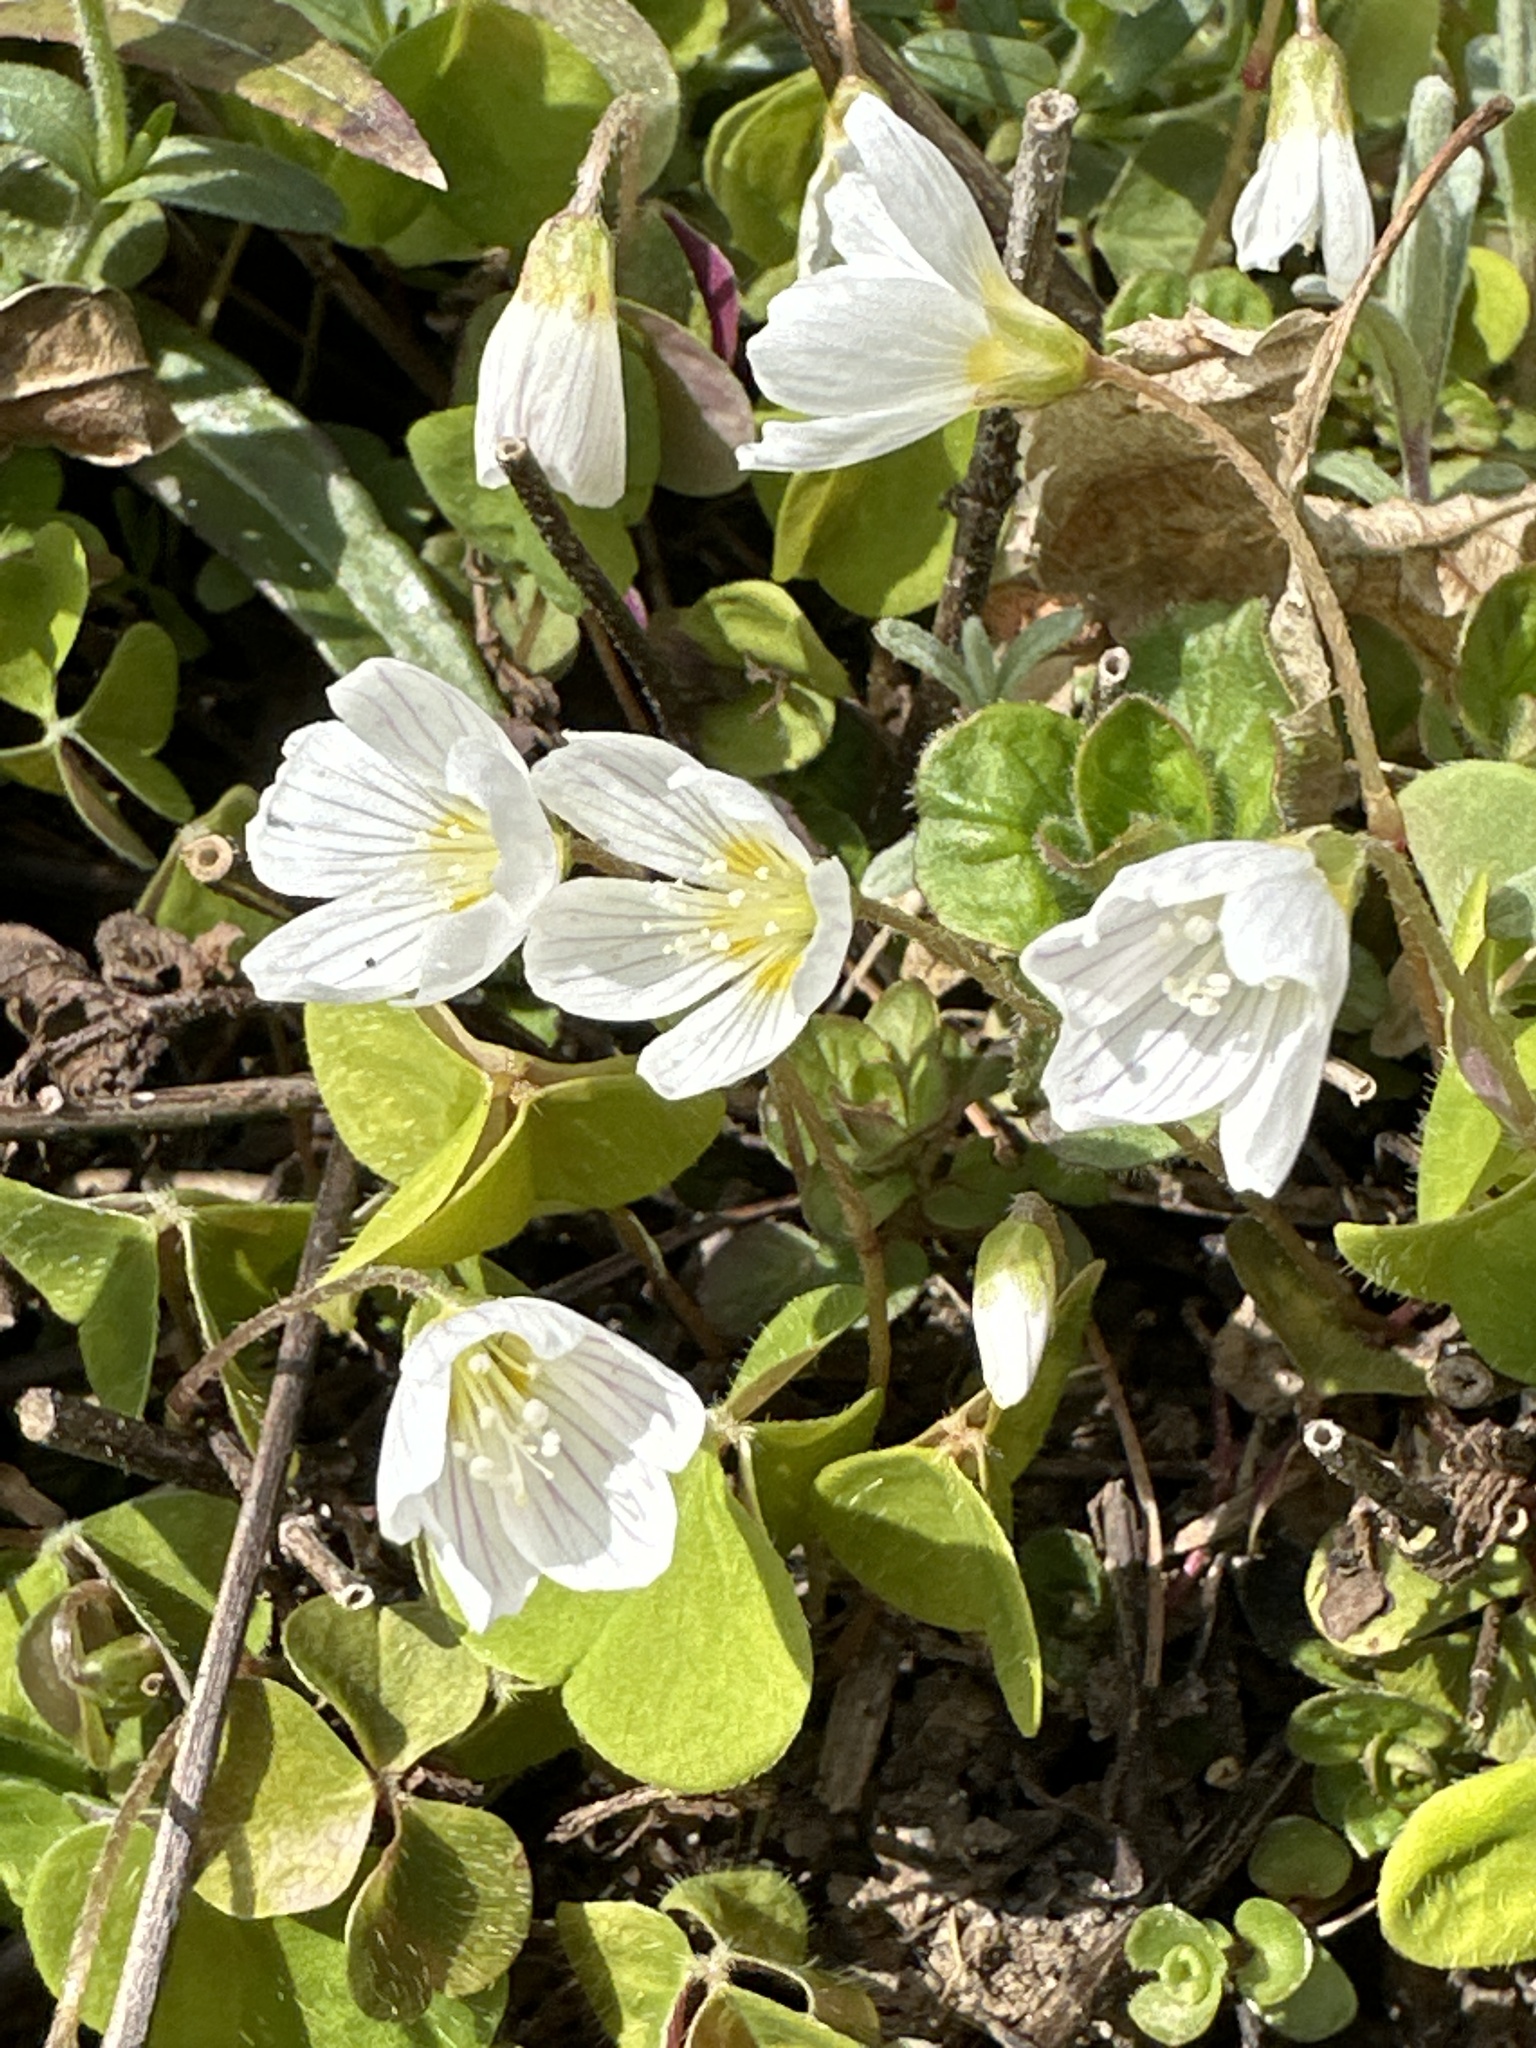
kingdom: Plantae
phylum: Tracheophyta
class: Magnoliopsida
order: Oxalidales
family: Oxalidaceae
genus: Oxalis
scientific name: Oxalis acetosella
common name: Wood-sorrel
